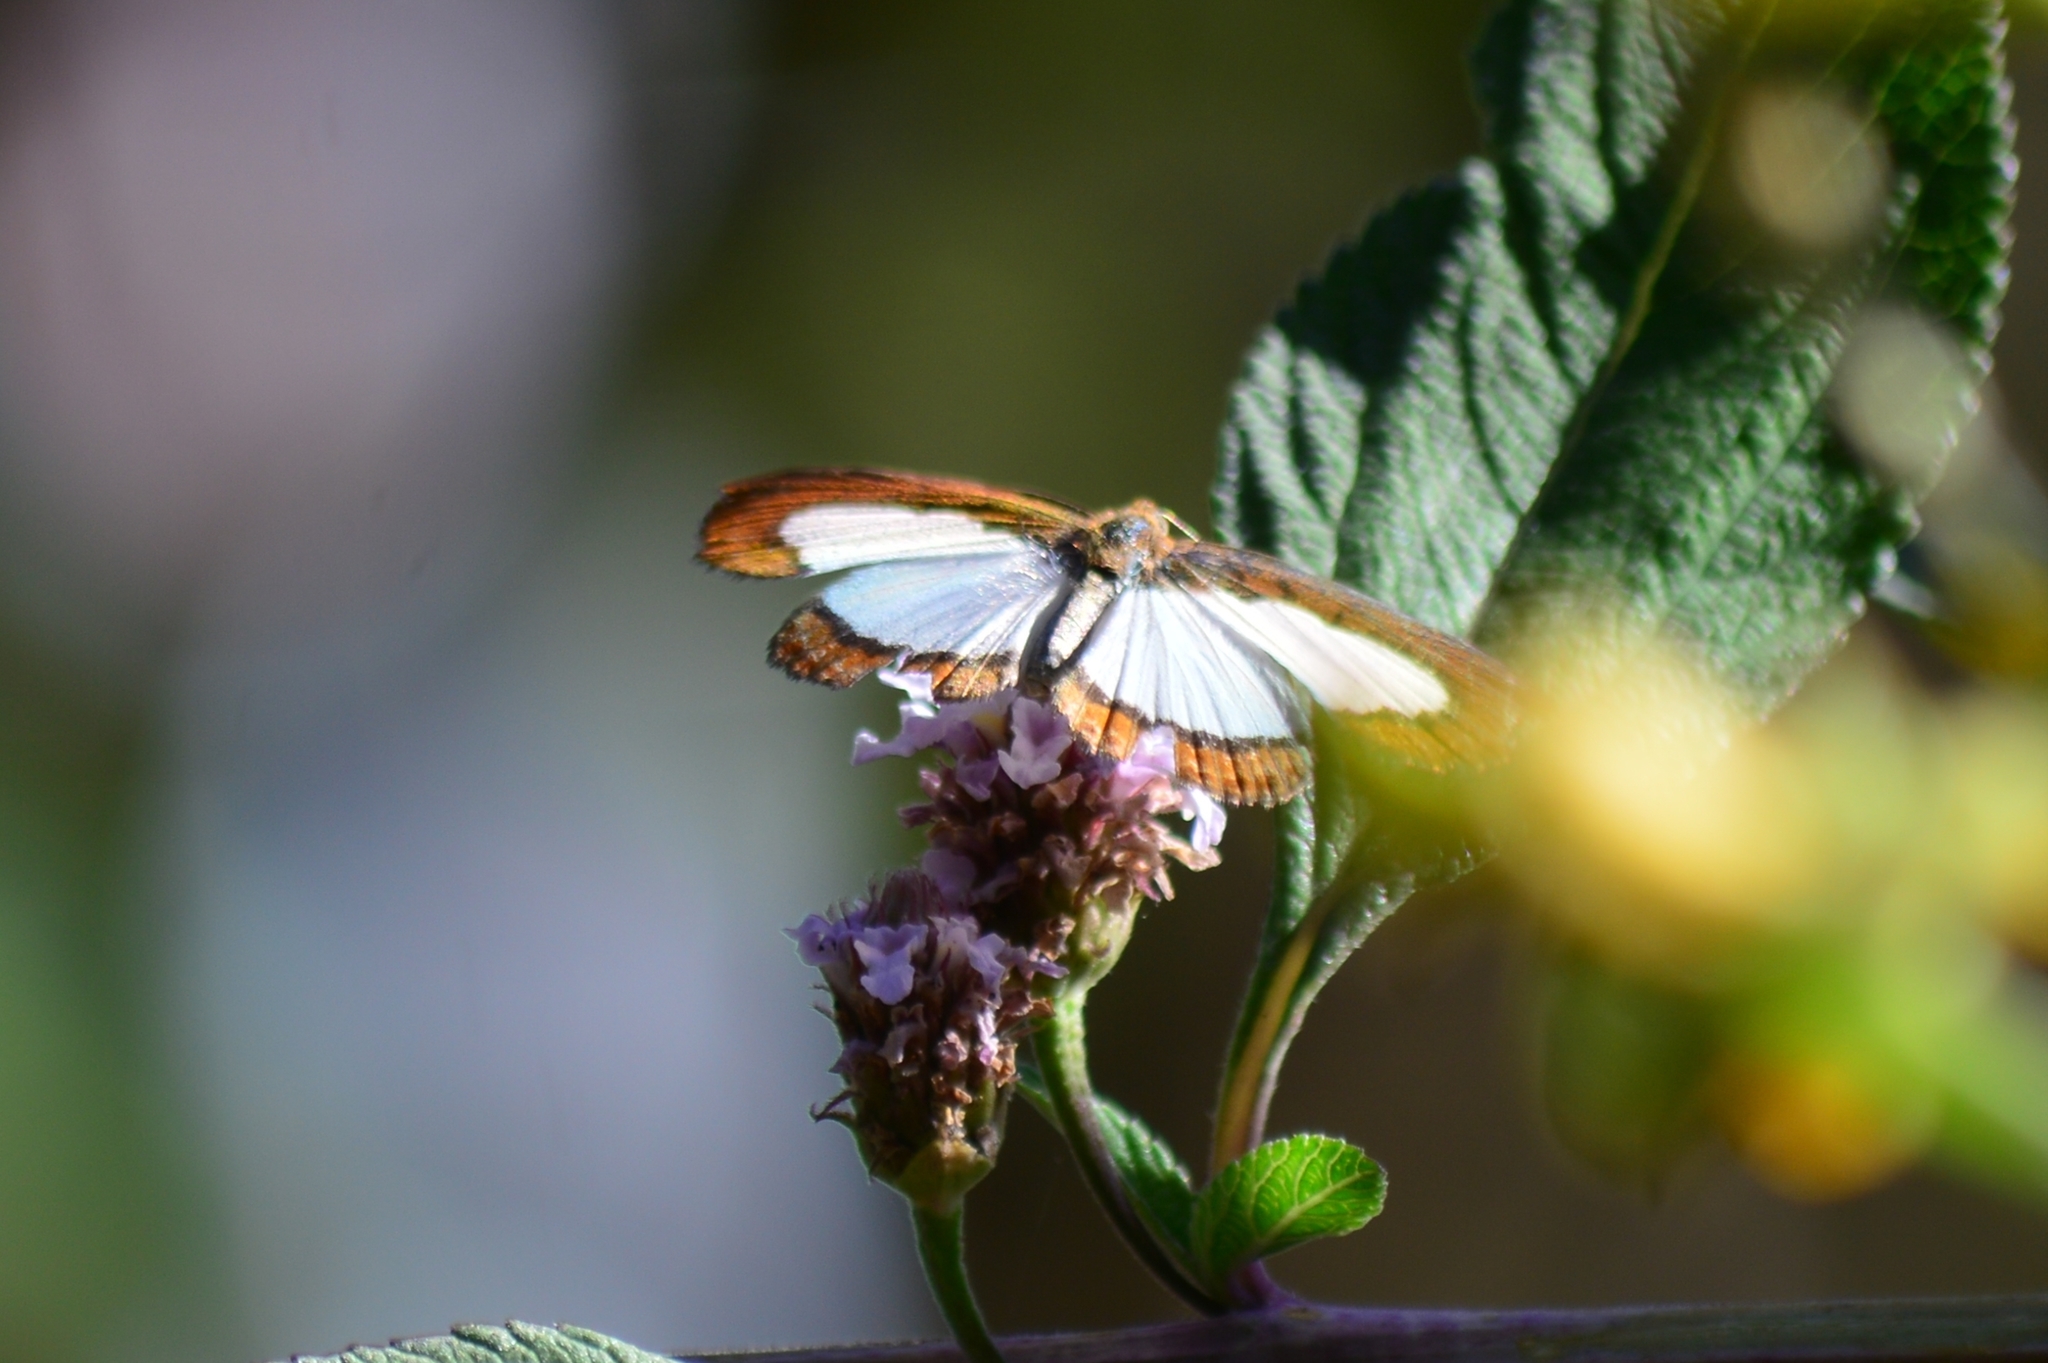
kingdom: Animalia
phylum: Arthropoda
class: Insecta
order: Lepidoptera
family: Riodinidae
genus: Nymula
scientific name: Nymula calyce
